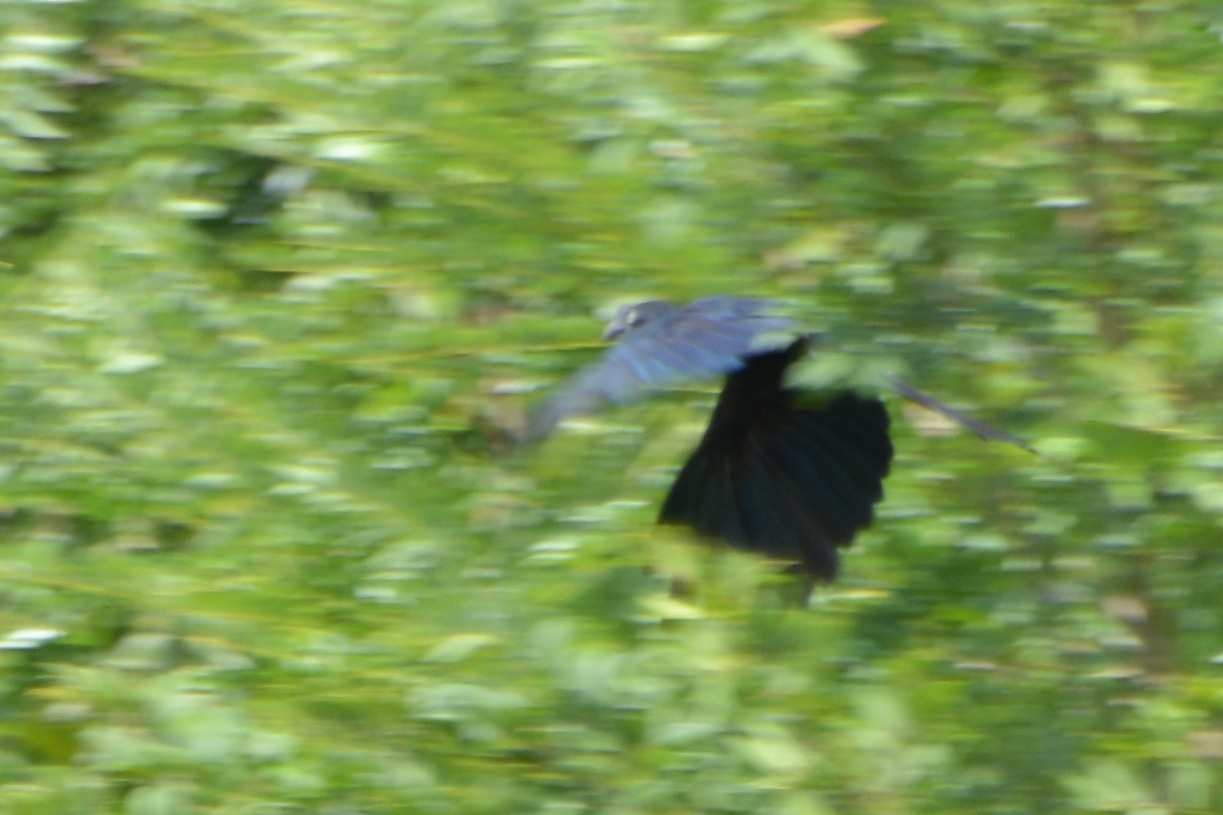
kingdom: Animalia
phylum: Chordata
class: Aves
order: Cuculiformes
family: Cuculidae
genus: Crotophaga
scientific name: Crotophaga major
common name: Greater ani
